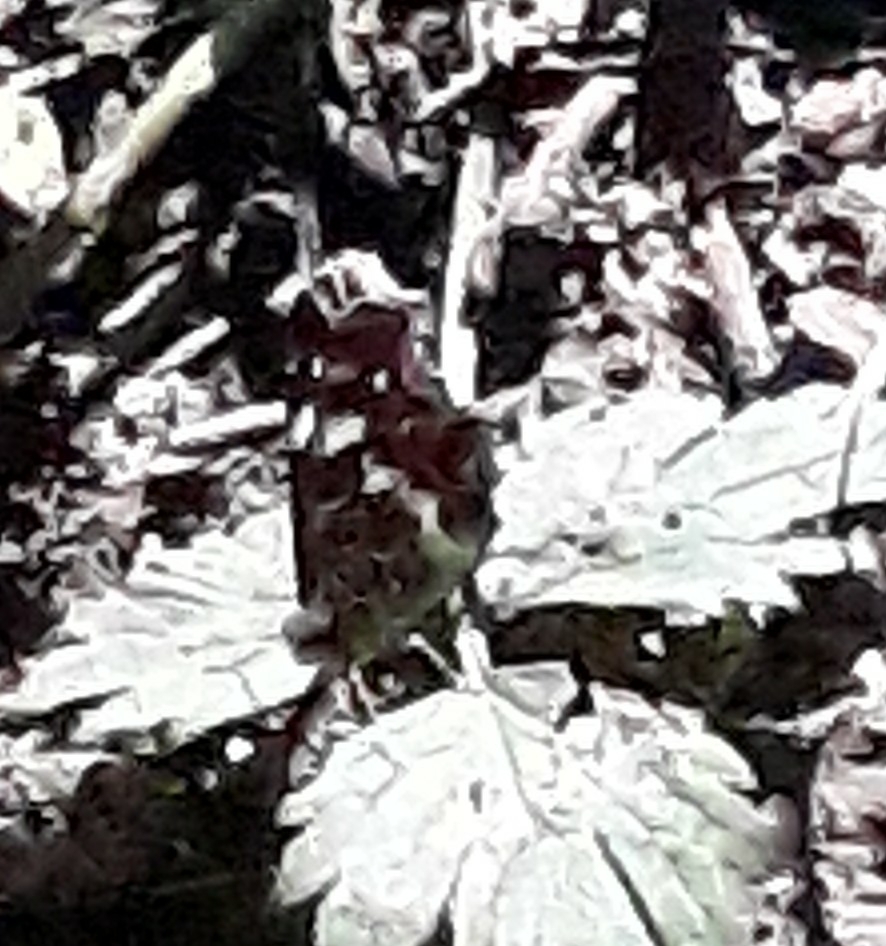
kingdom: Animalia
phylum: Arthropoda
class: Insecta
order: Lepidoptera
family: Nymphalidae
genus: Araschnia
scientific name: Araschnia levana
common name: Map butterfly
